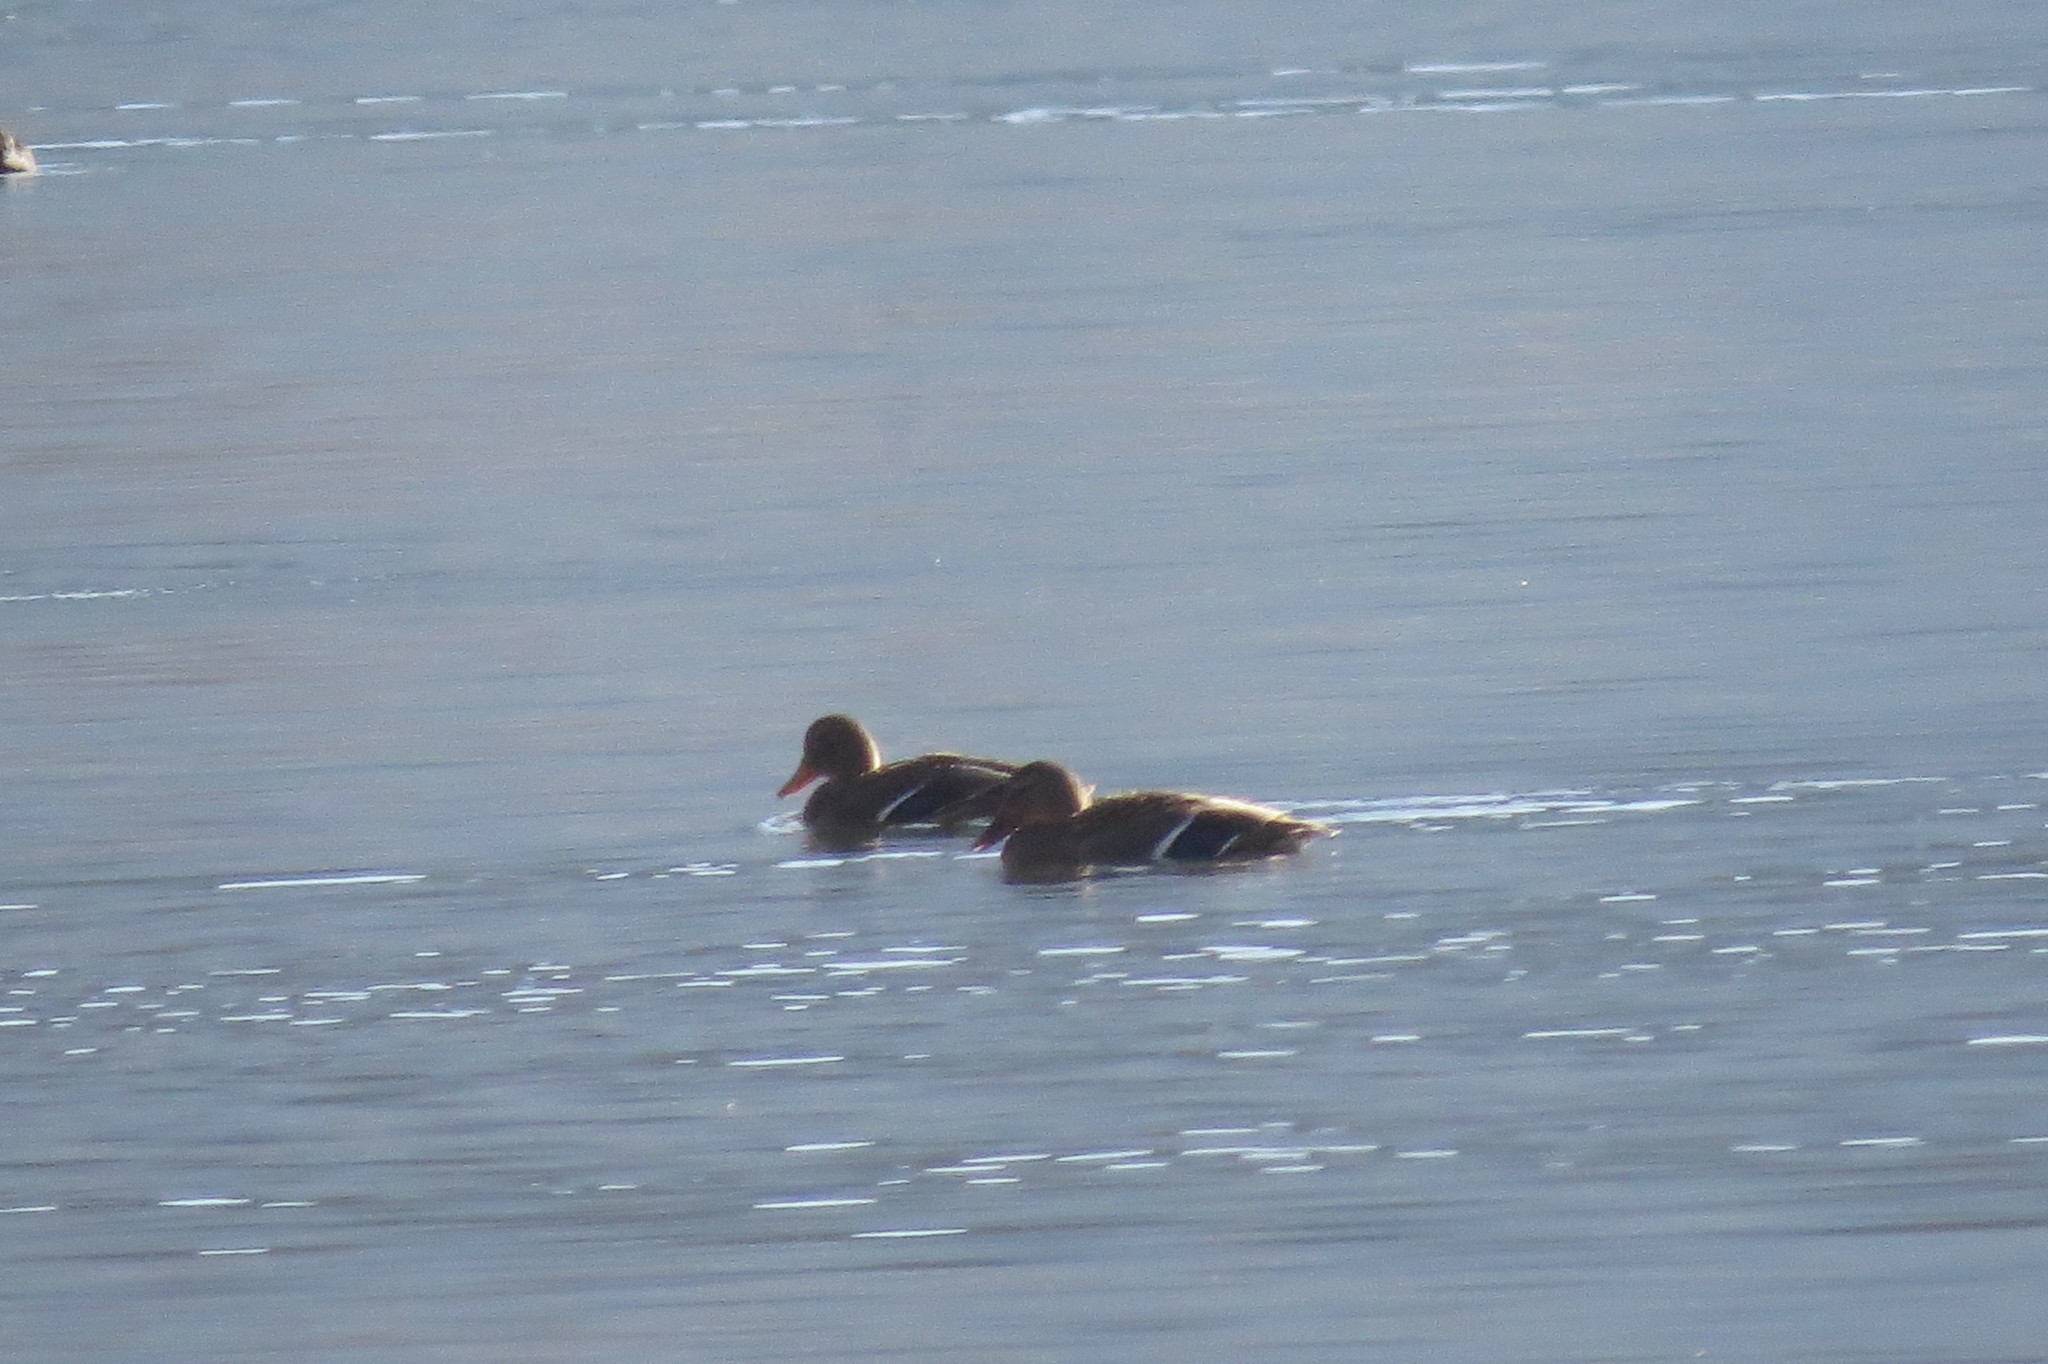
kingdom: Animalia
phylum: Chordata
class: Aves
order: Anseriformes
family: Anatidae
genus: Anas
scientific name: Anas platyrhynchos
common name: Mallard
